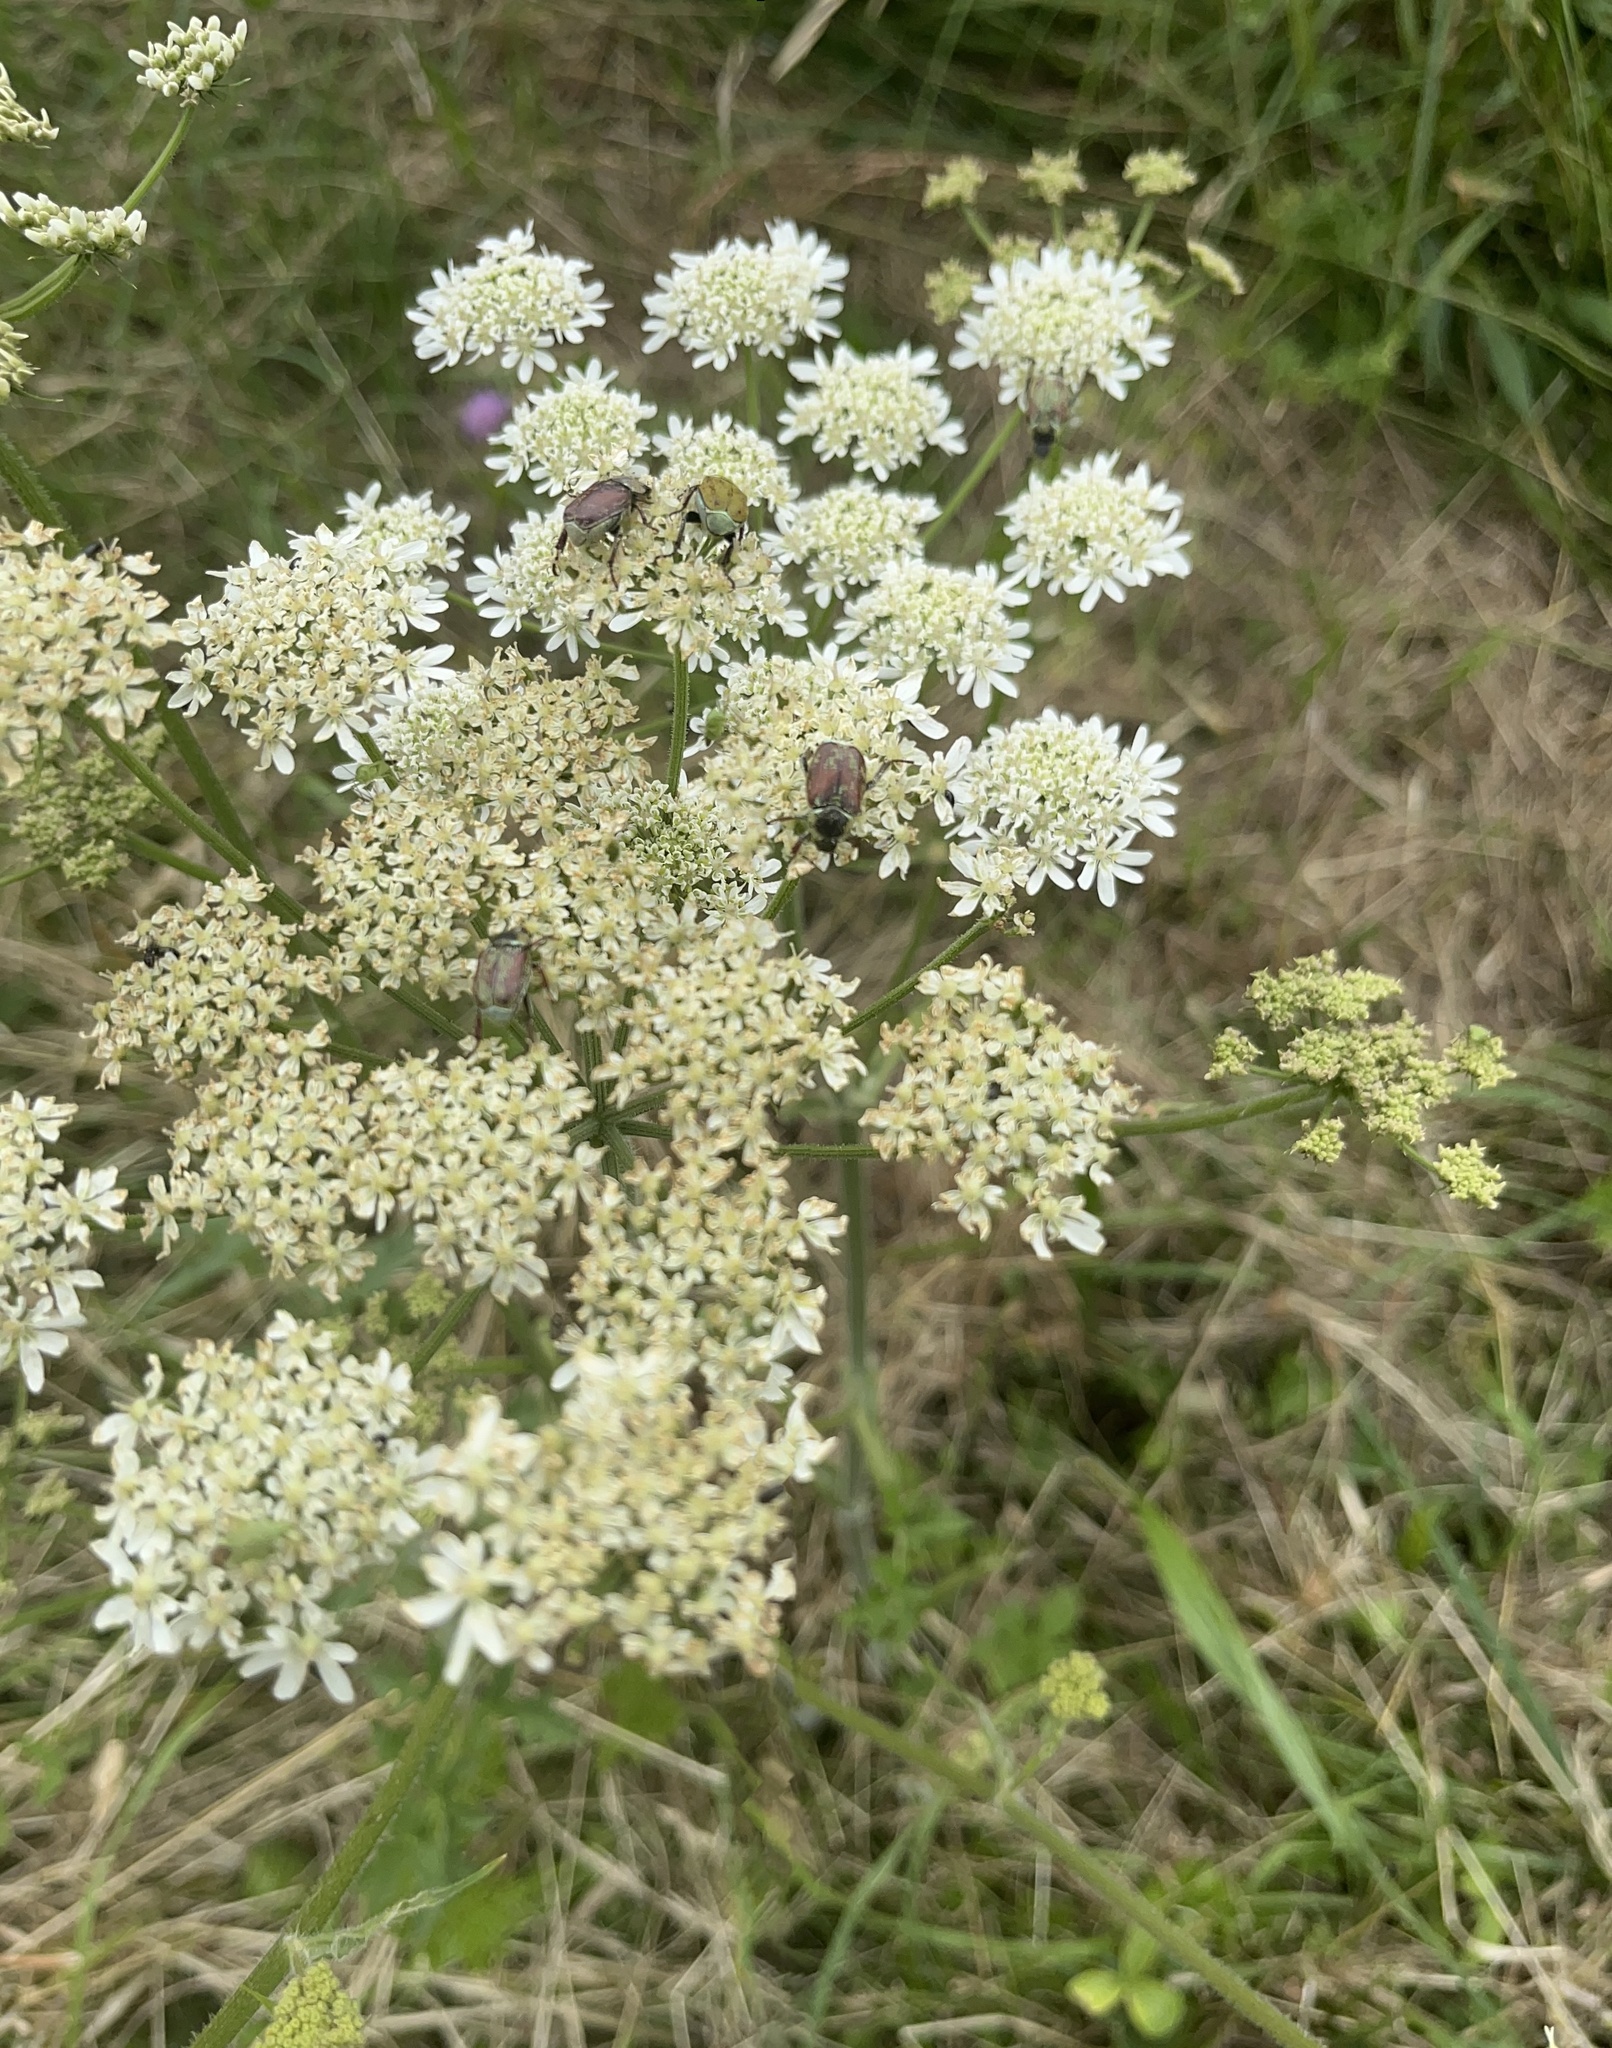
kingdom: Plantae
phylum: Tracheophyta
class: Magnoliopsida
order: Apiales
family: Apiaceae
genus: Heracleum
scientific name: Heracleum sphondylium
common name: Hogweed
